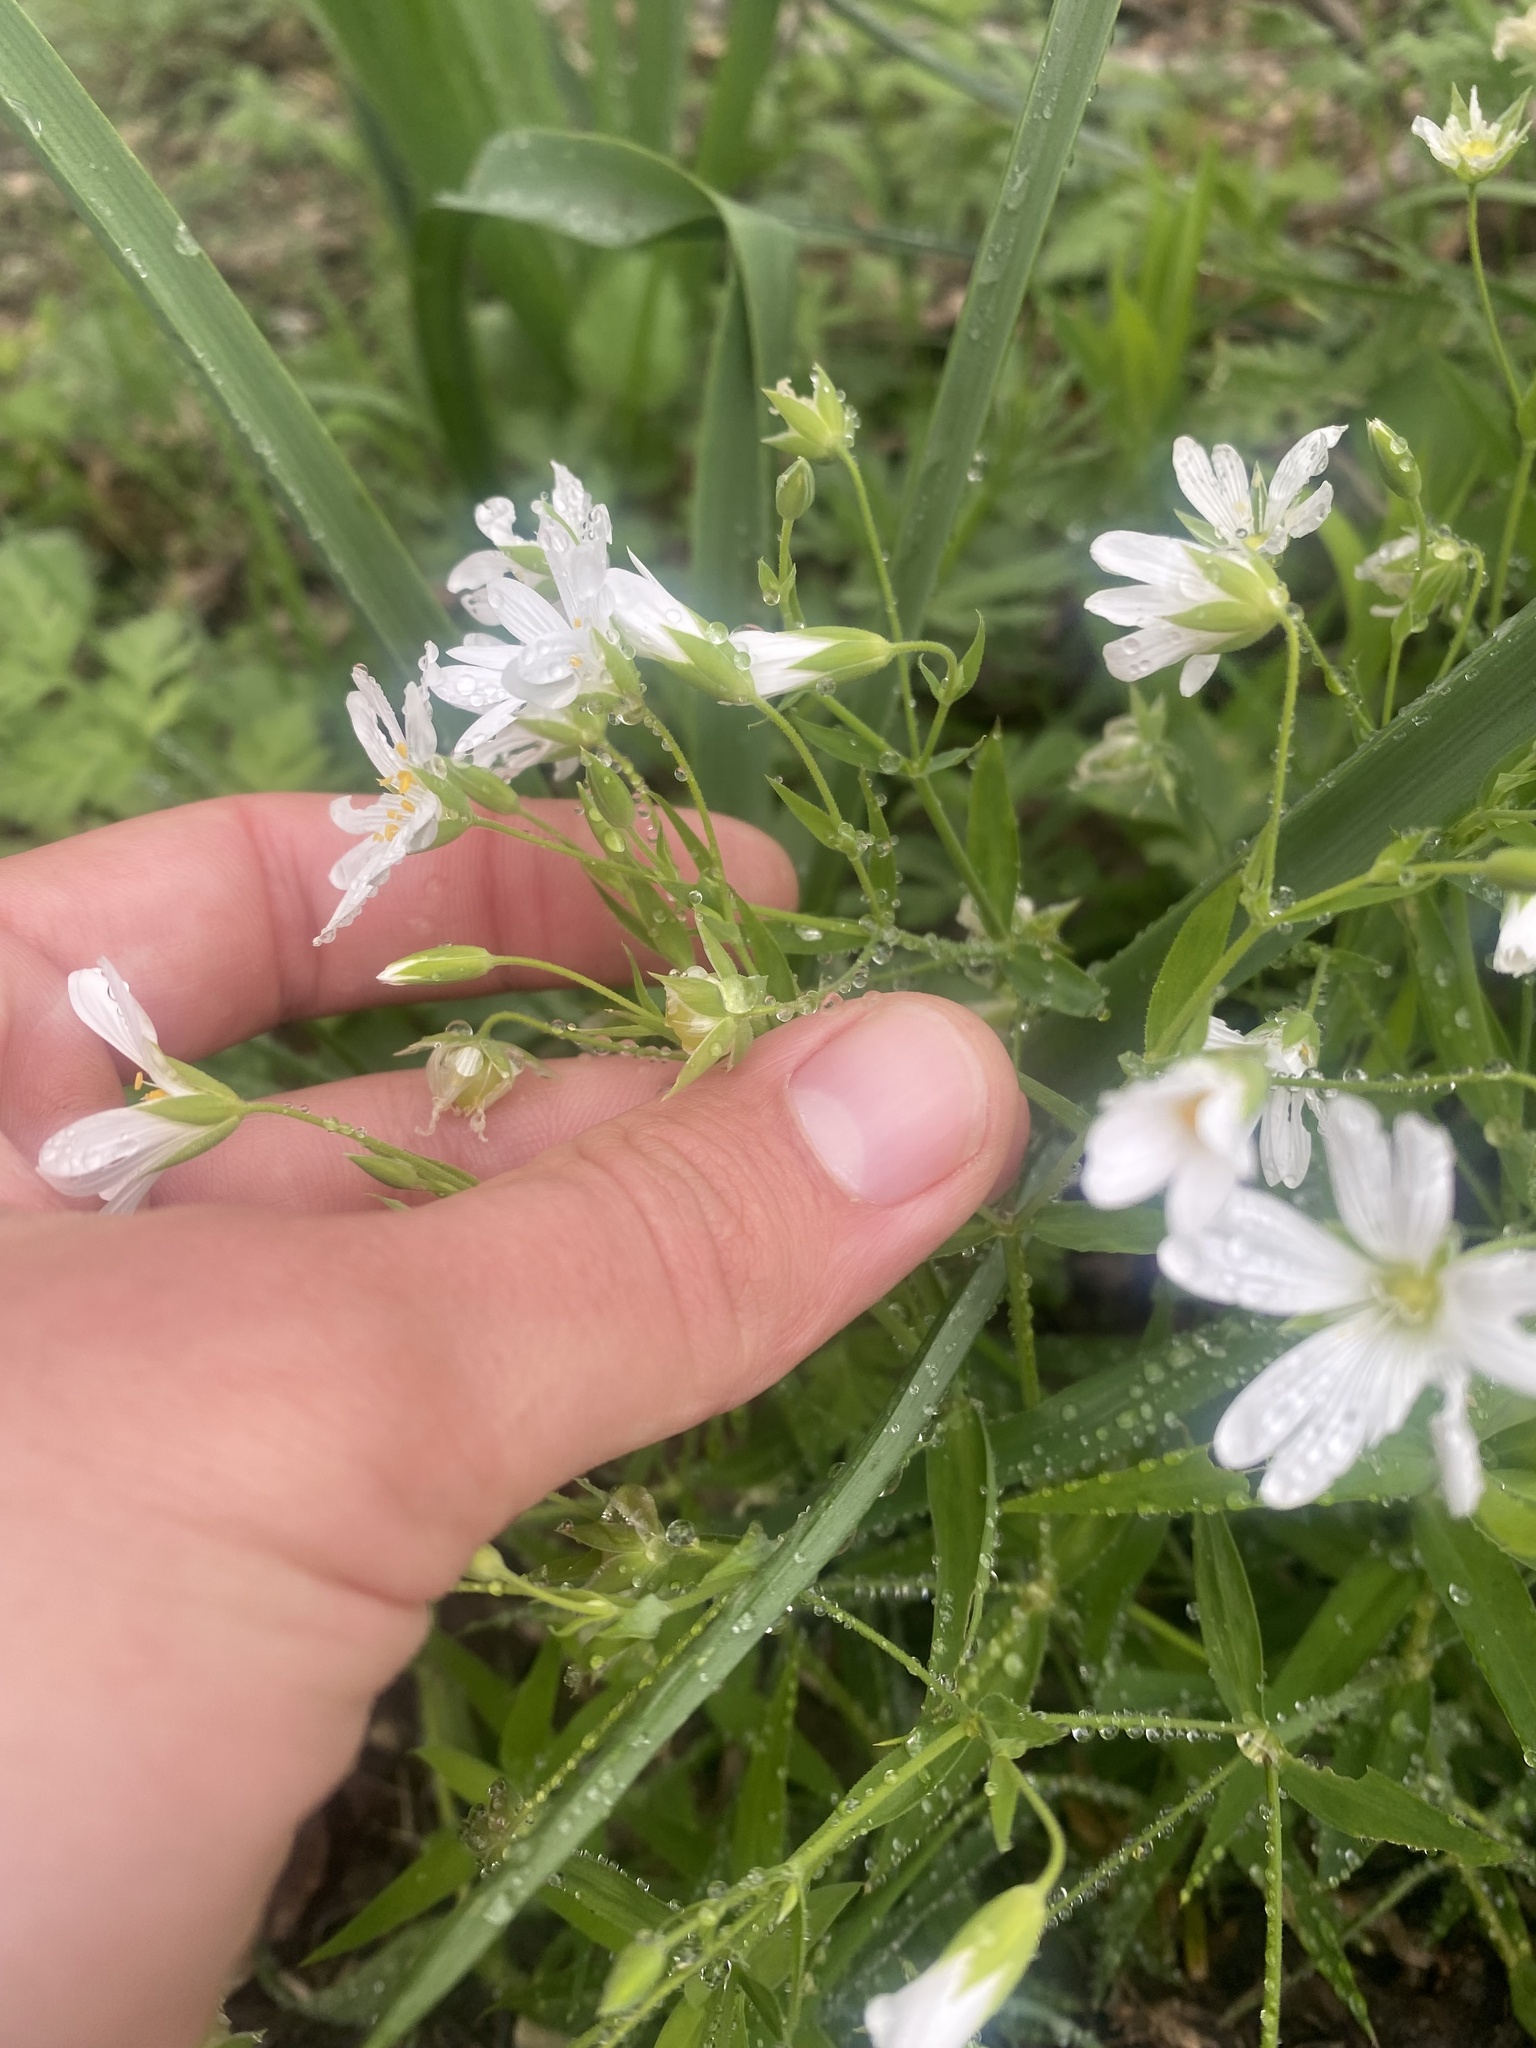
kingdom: Plantae
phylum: Tracheophyta
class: Magnoliopsida
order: Caryophyllales
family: Caryophyllaceae
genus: Rabelera
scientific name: Rabelera holostea
